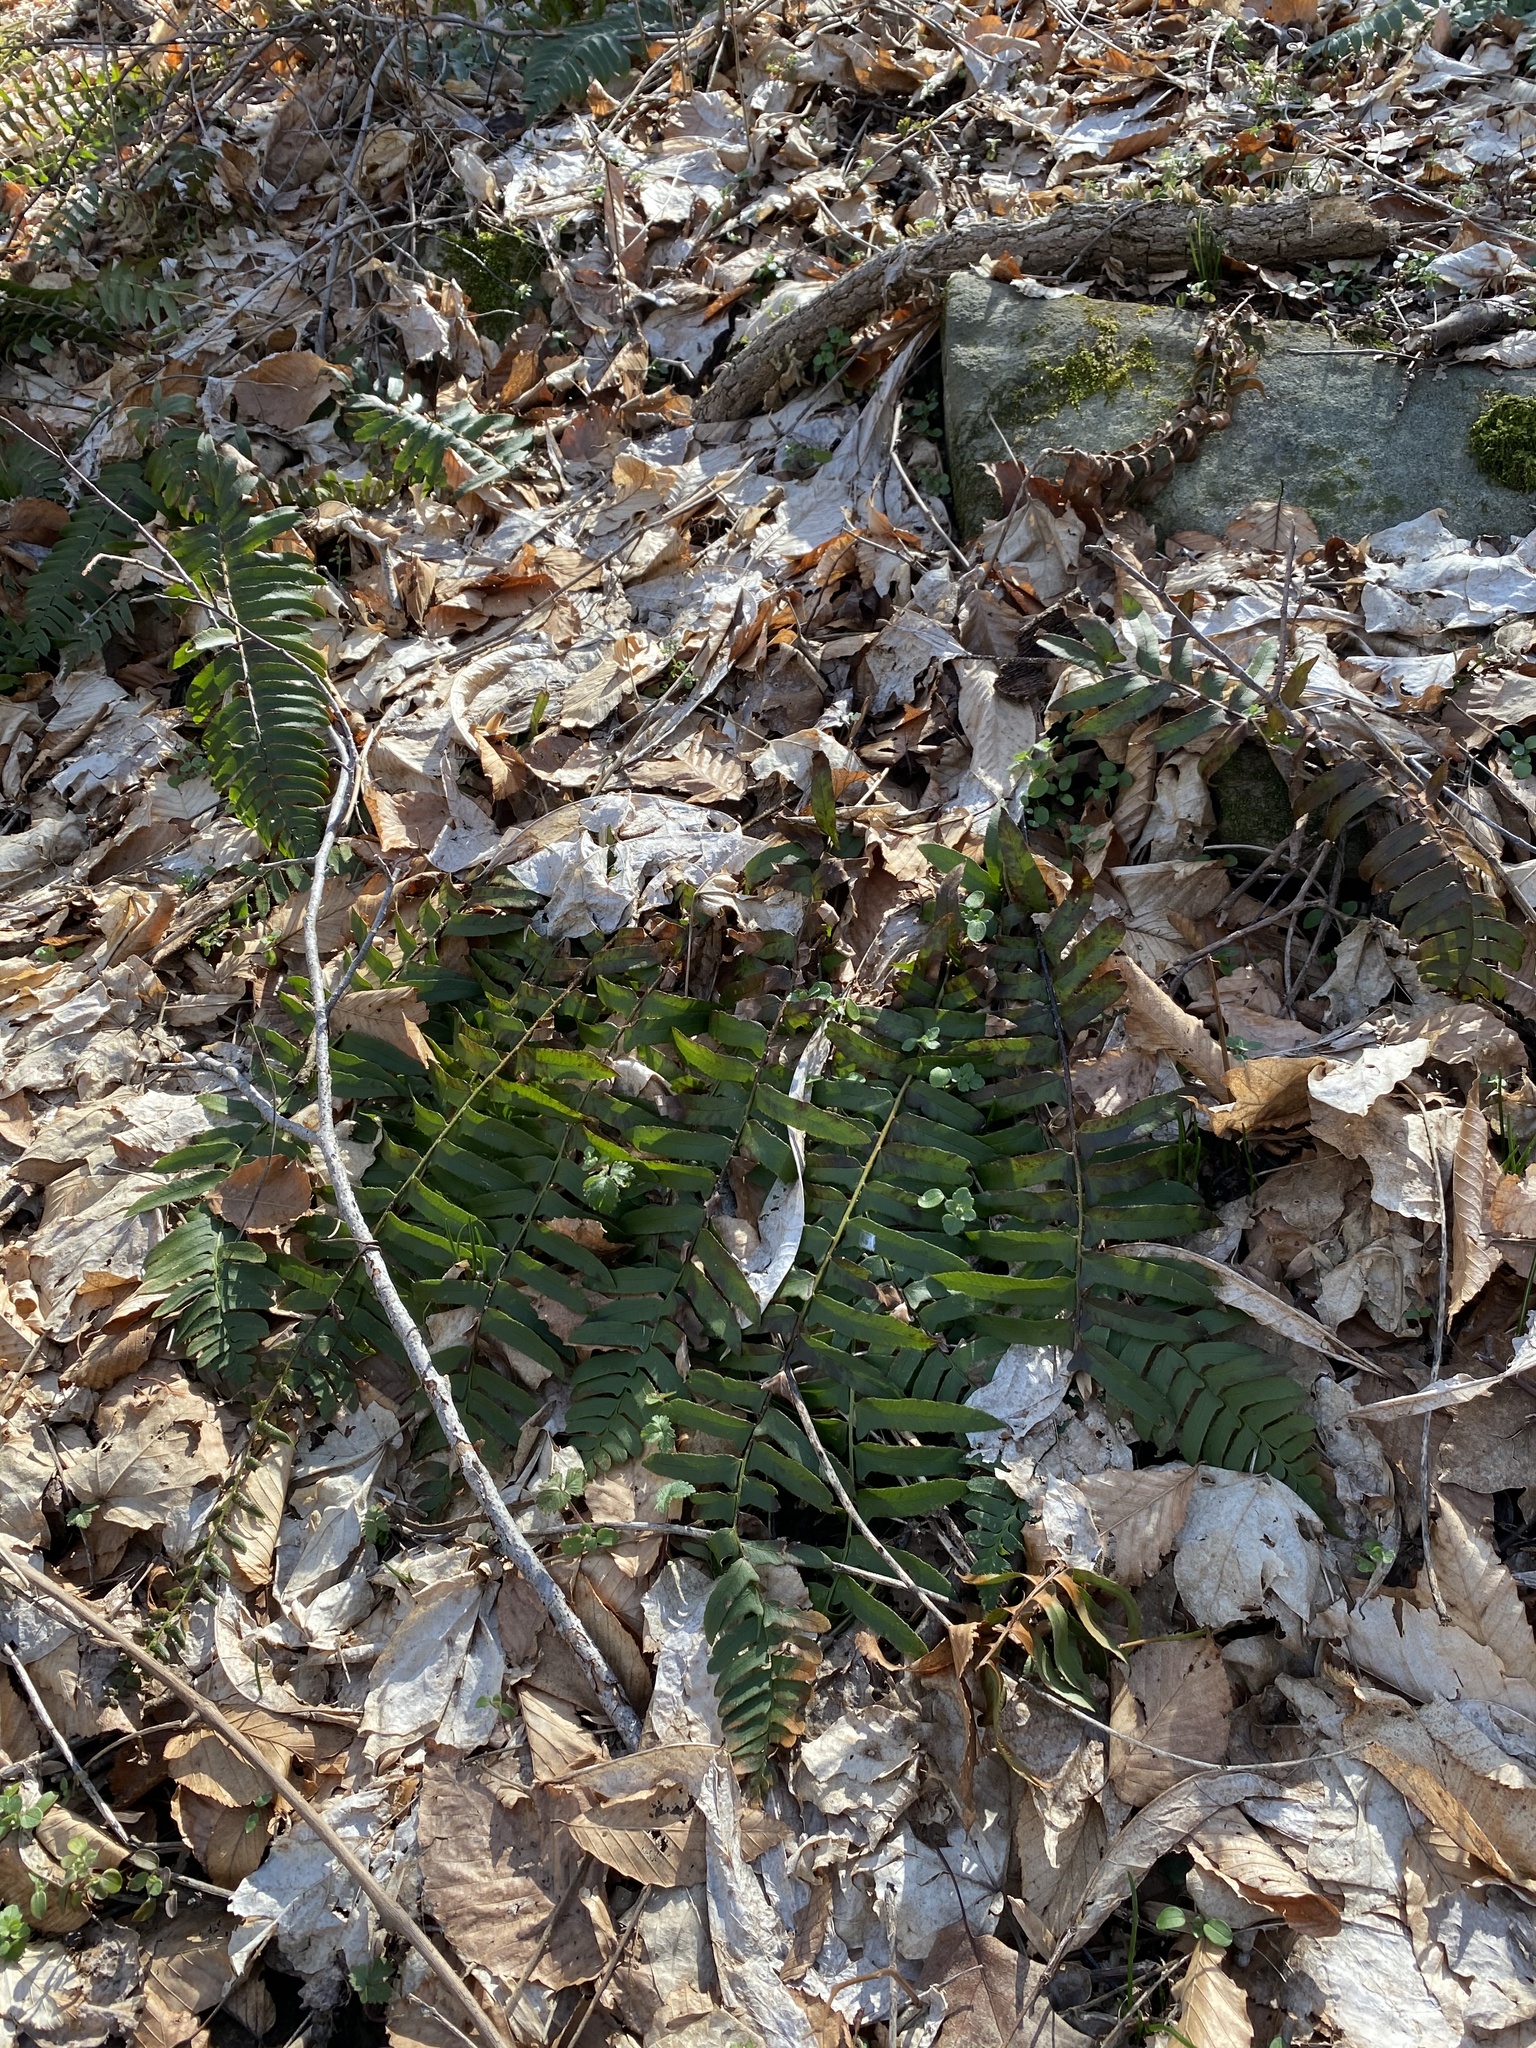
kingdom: Plantae
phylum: Tracheophyta
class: Polypodiopsida
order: Polypodiales
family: Dryopteridaceae
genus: Polystichum
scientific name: Polystichum acrostichoides
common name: Christmas fern
